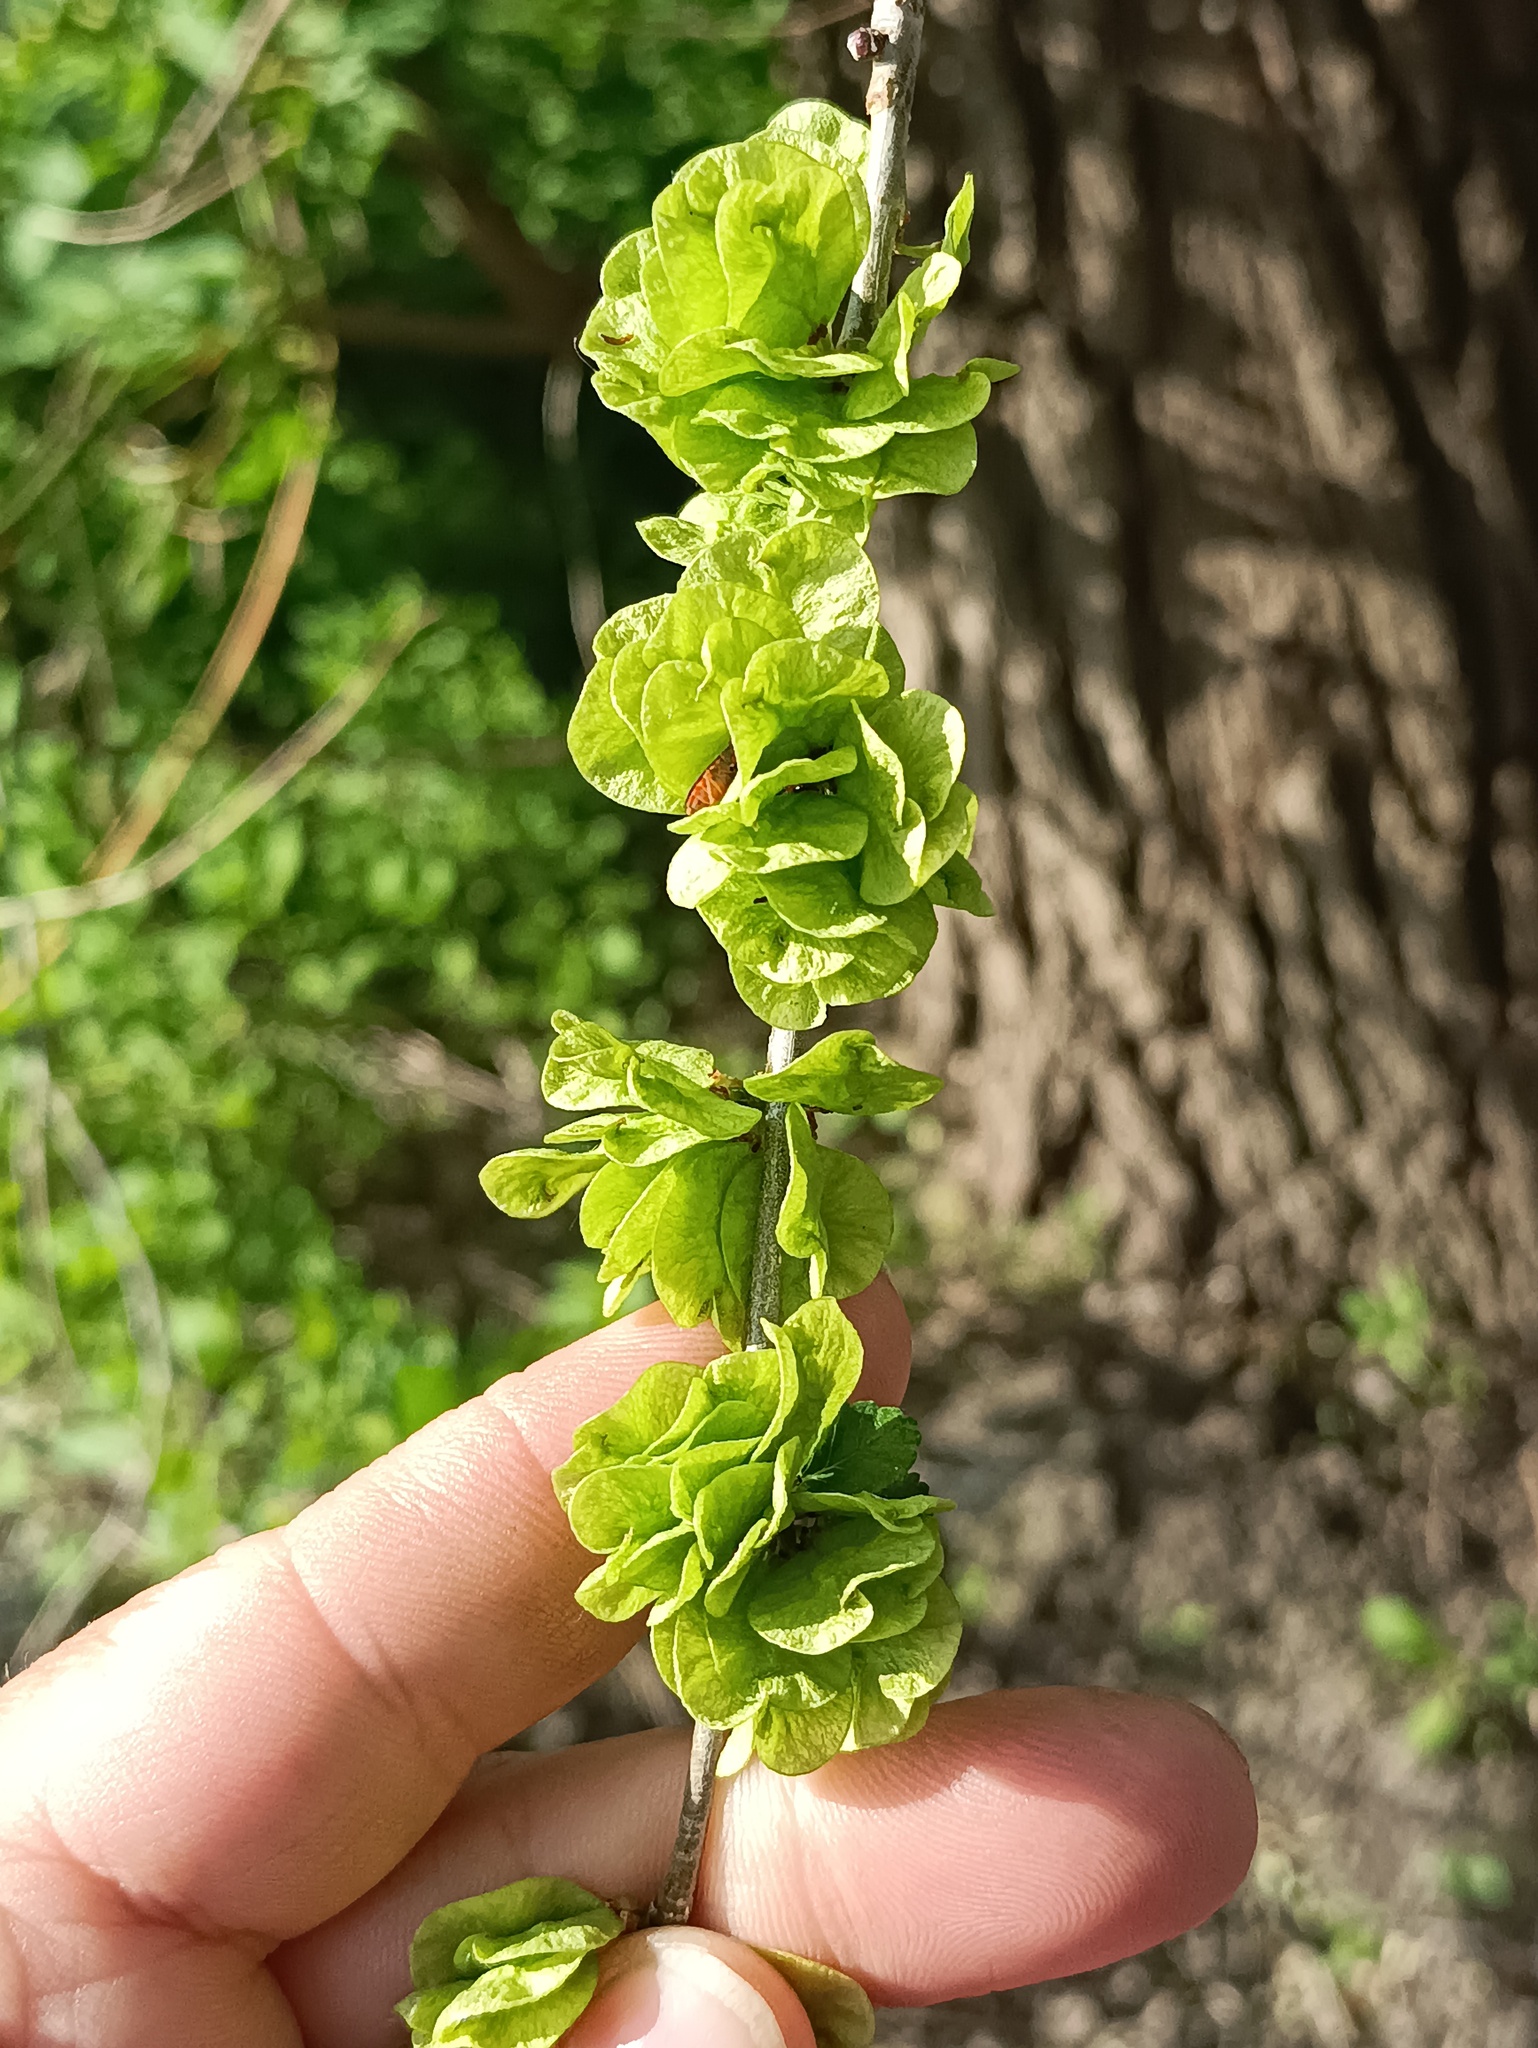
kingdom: Plantae
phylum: Tracheophyta
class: Magnoliopsida
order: Rosales
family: Ulmaceae
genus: Ulmus
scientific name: Ulmus pumila
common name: Siberian elm
